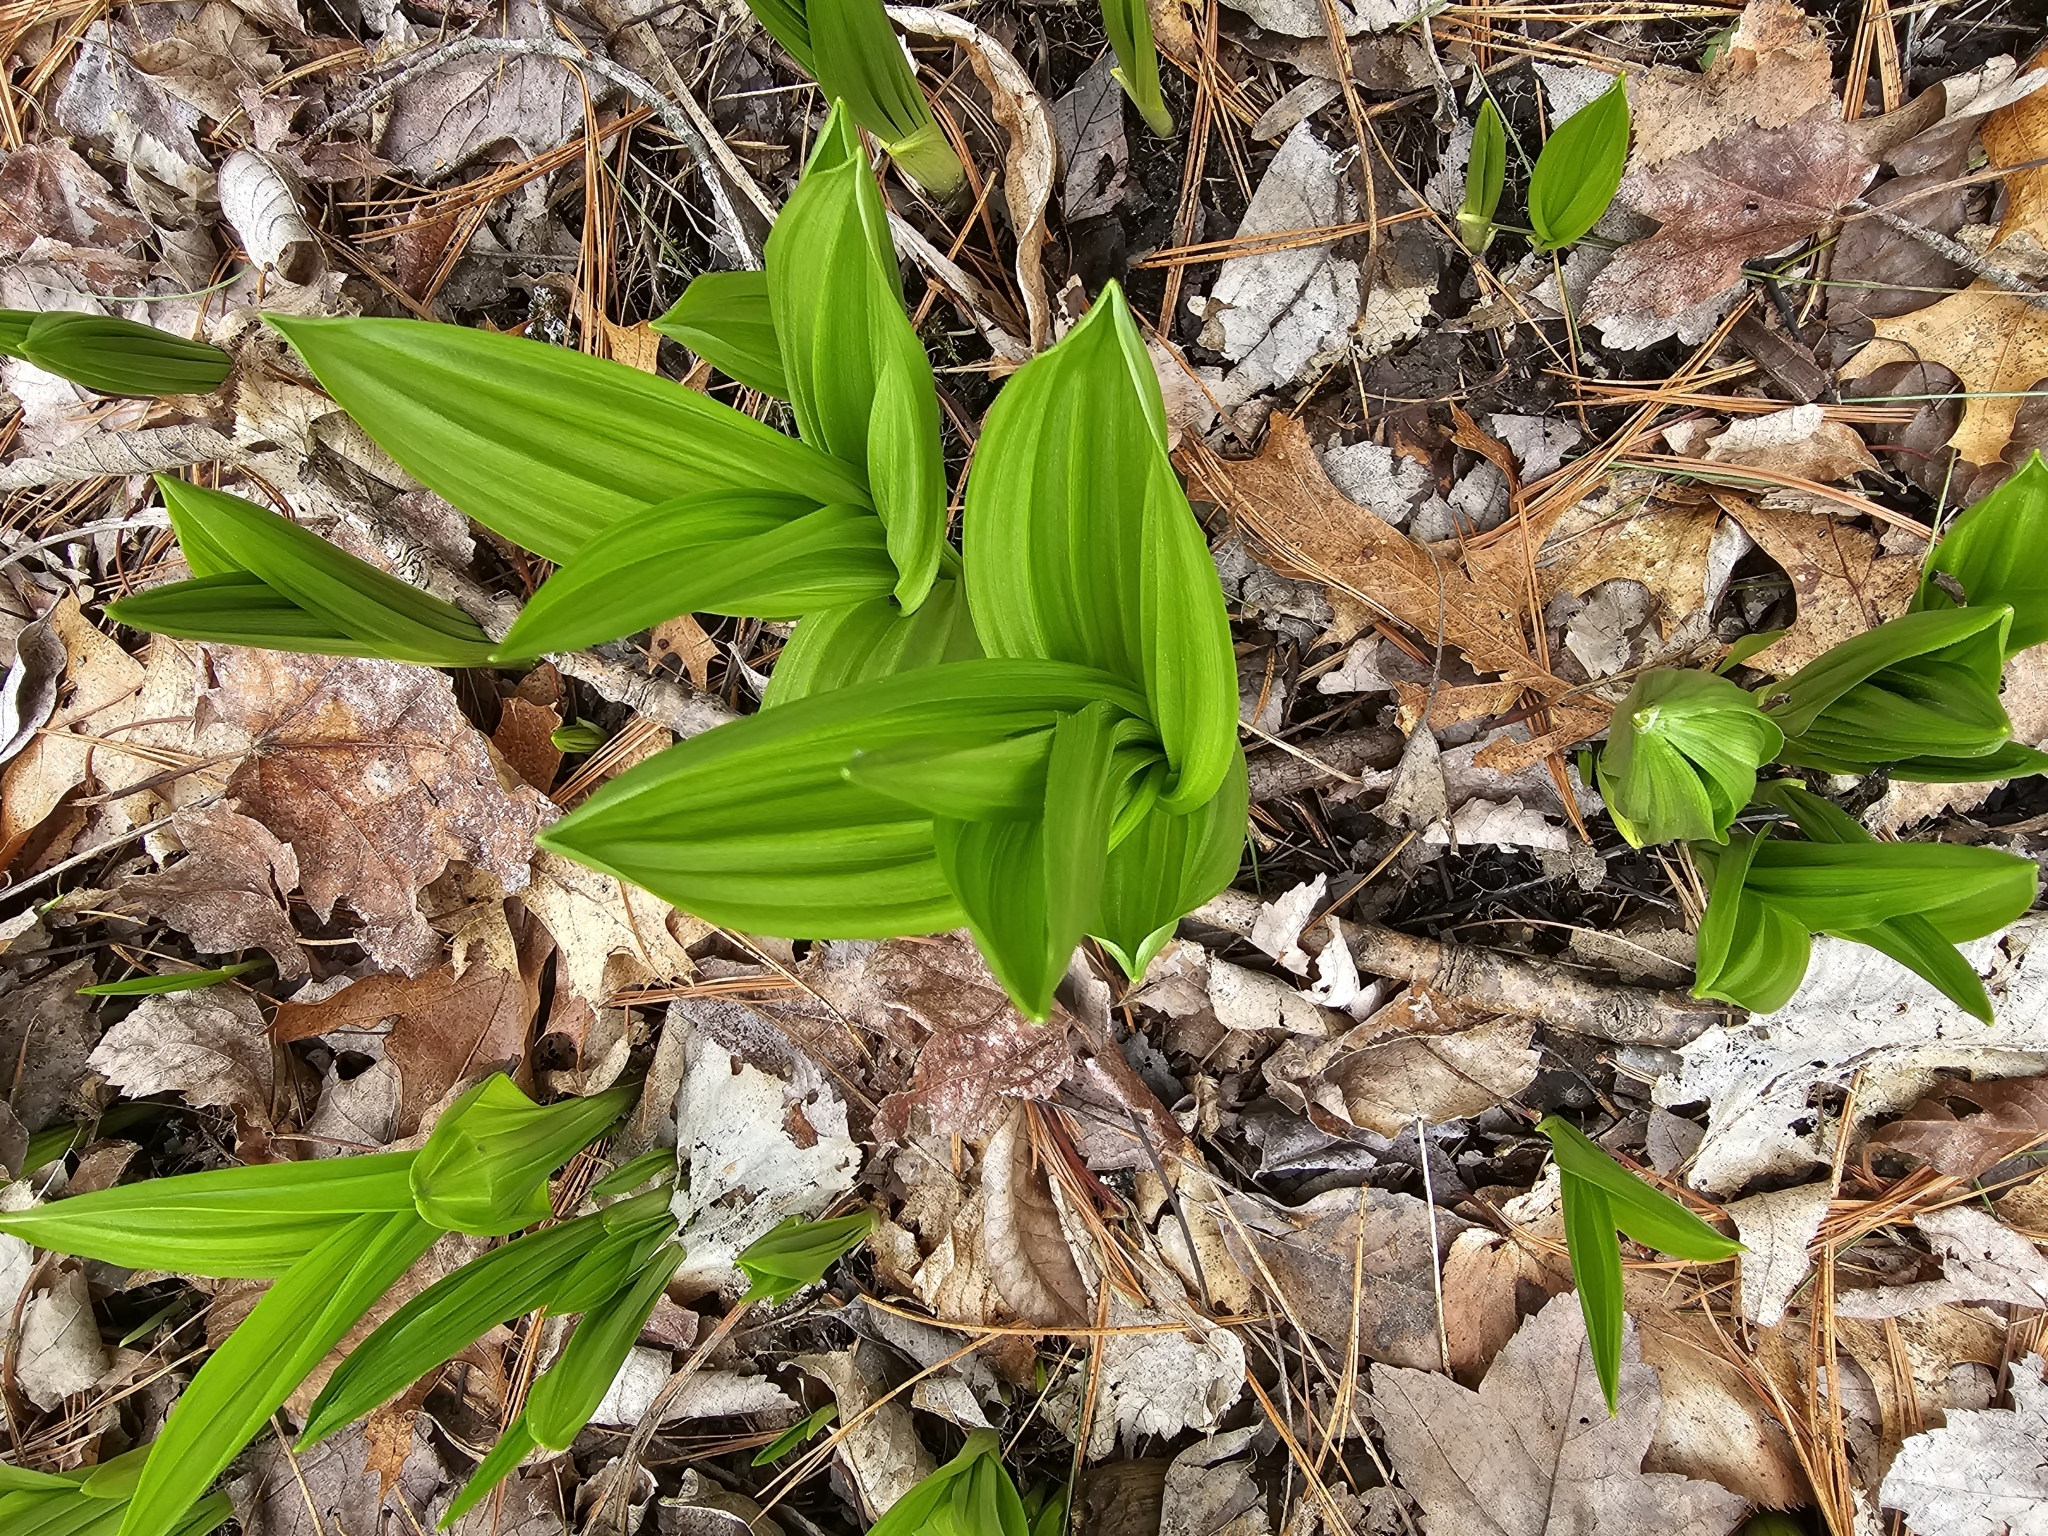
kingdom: Plantae
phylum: Tracheophyta
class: Liliopsida
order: Liliales
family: Melanthiaceae
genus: Veratrum
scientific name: Veratrum viride
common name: American false hellebore
